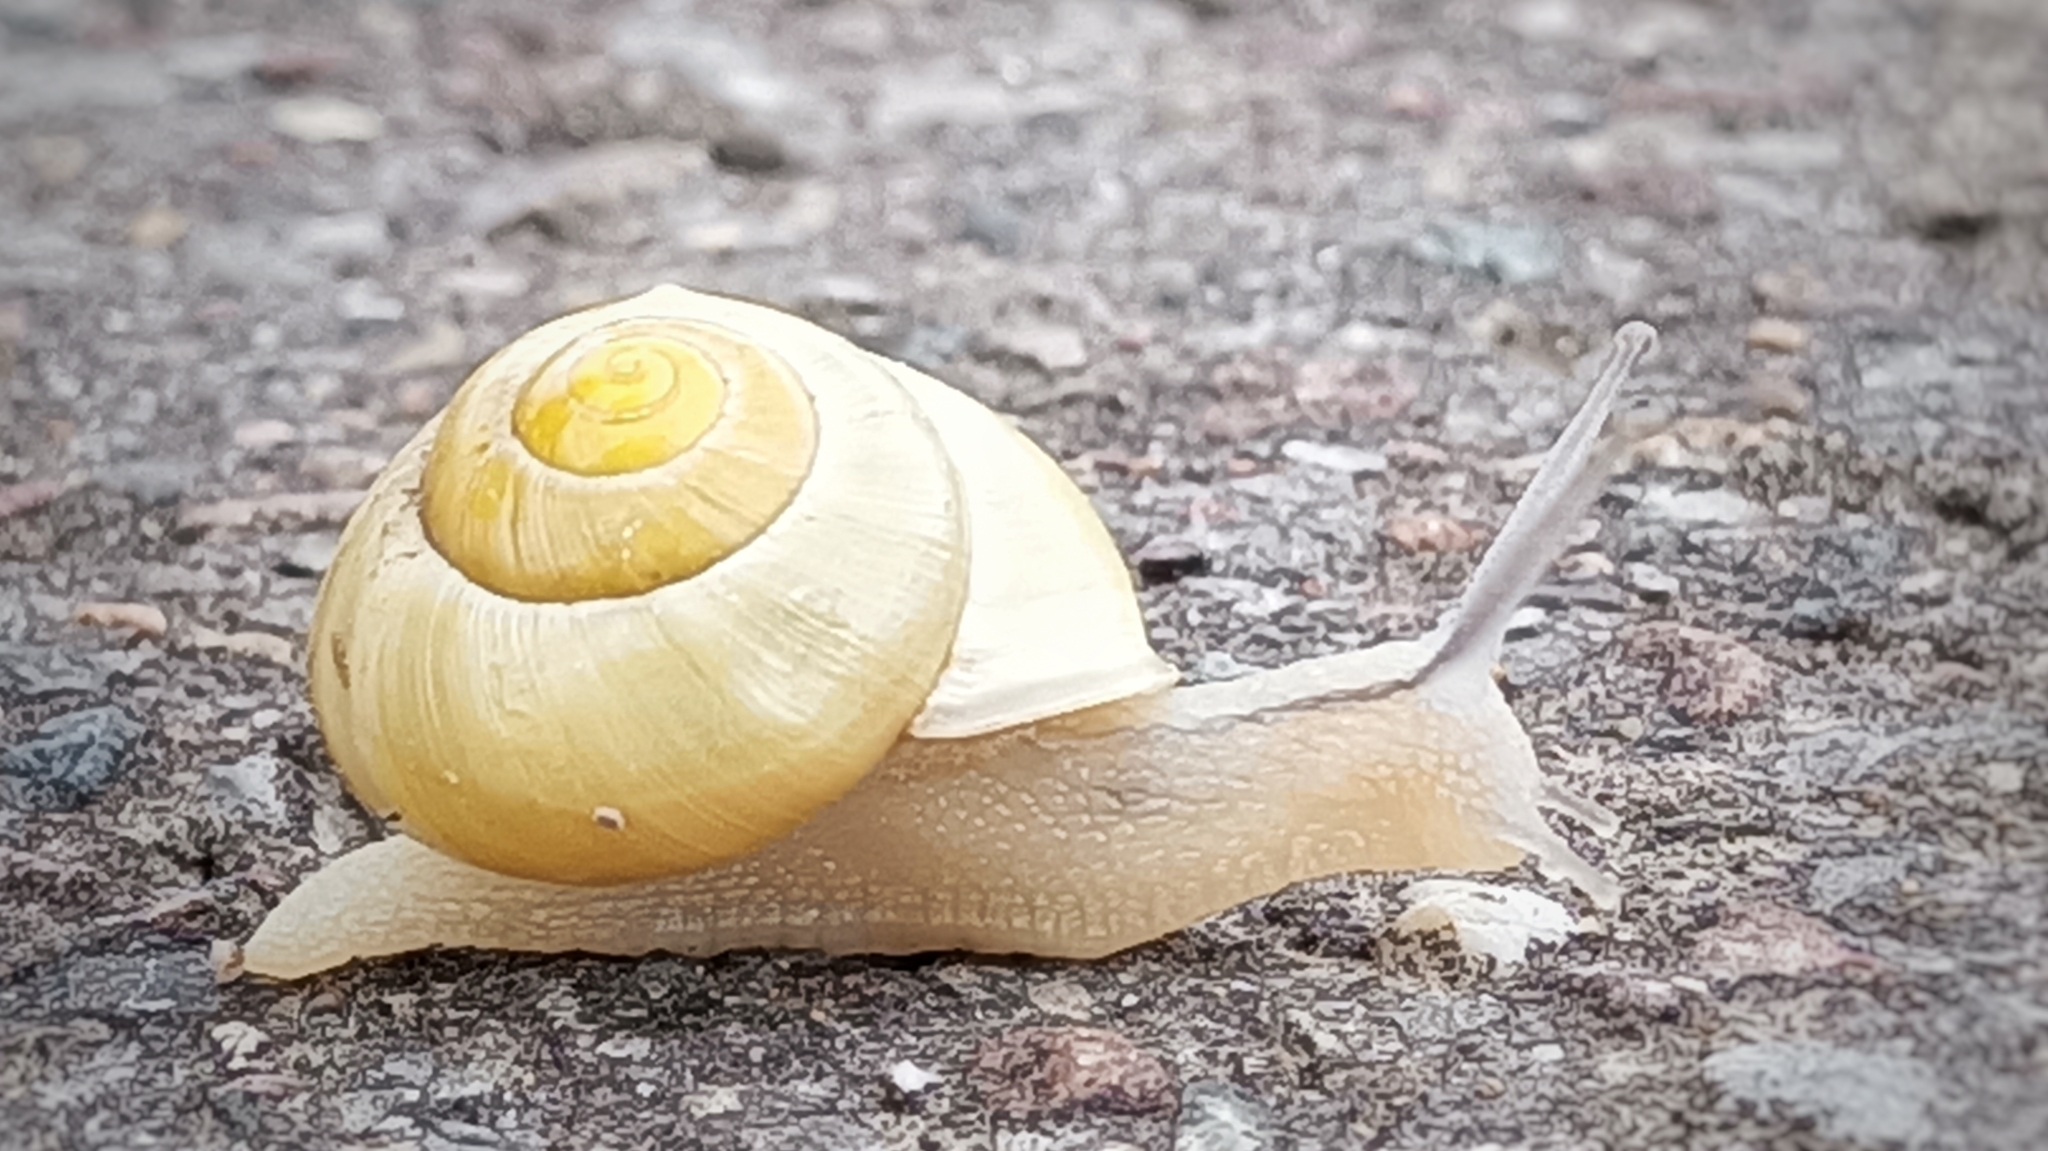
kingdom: Animalia
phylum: Mollusca
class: Gastropoda
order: Stylommatophora
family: Helicidae
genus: Cepaea
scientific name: Cepaea hortensis
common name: White-lip gardensnail
